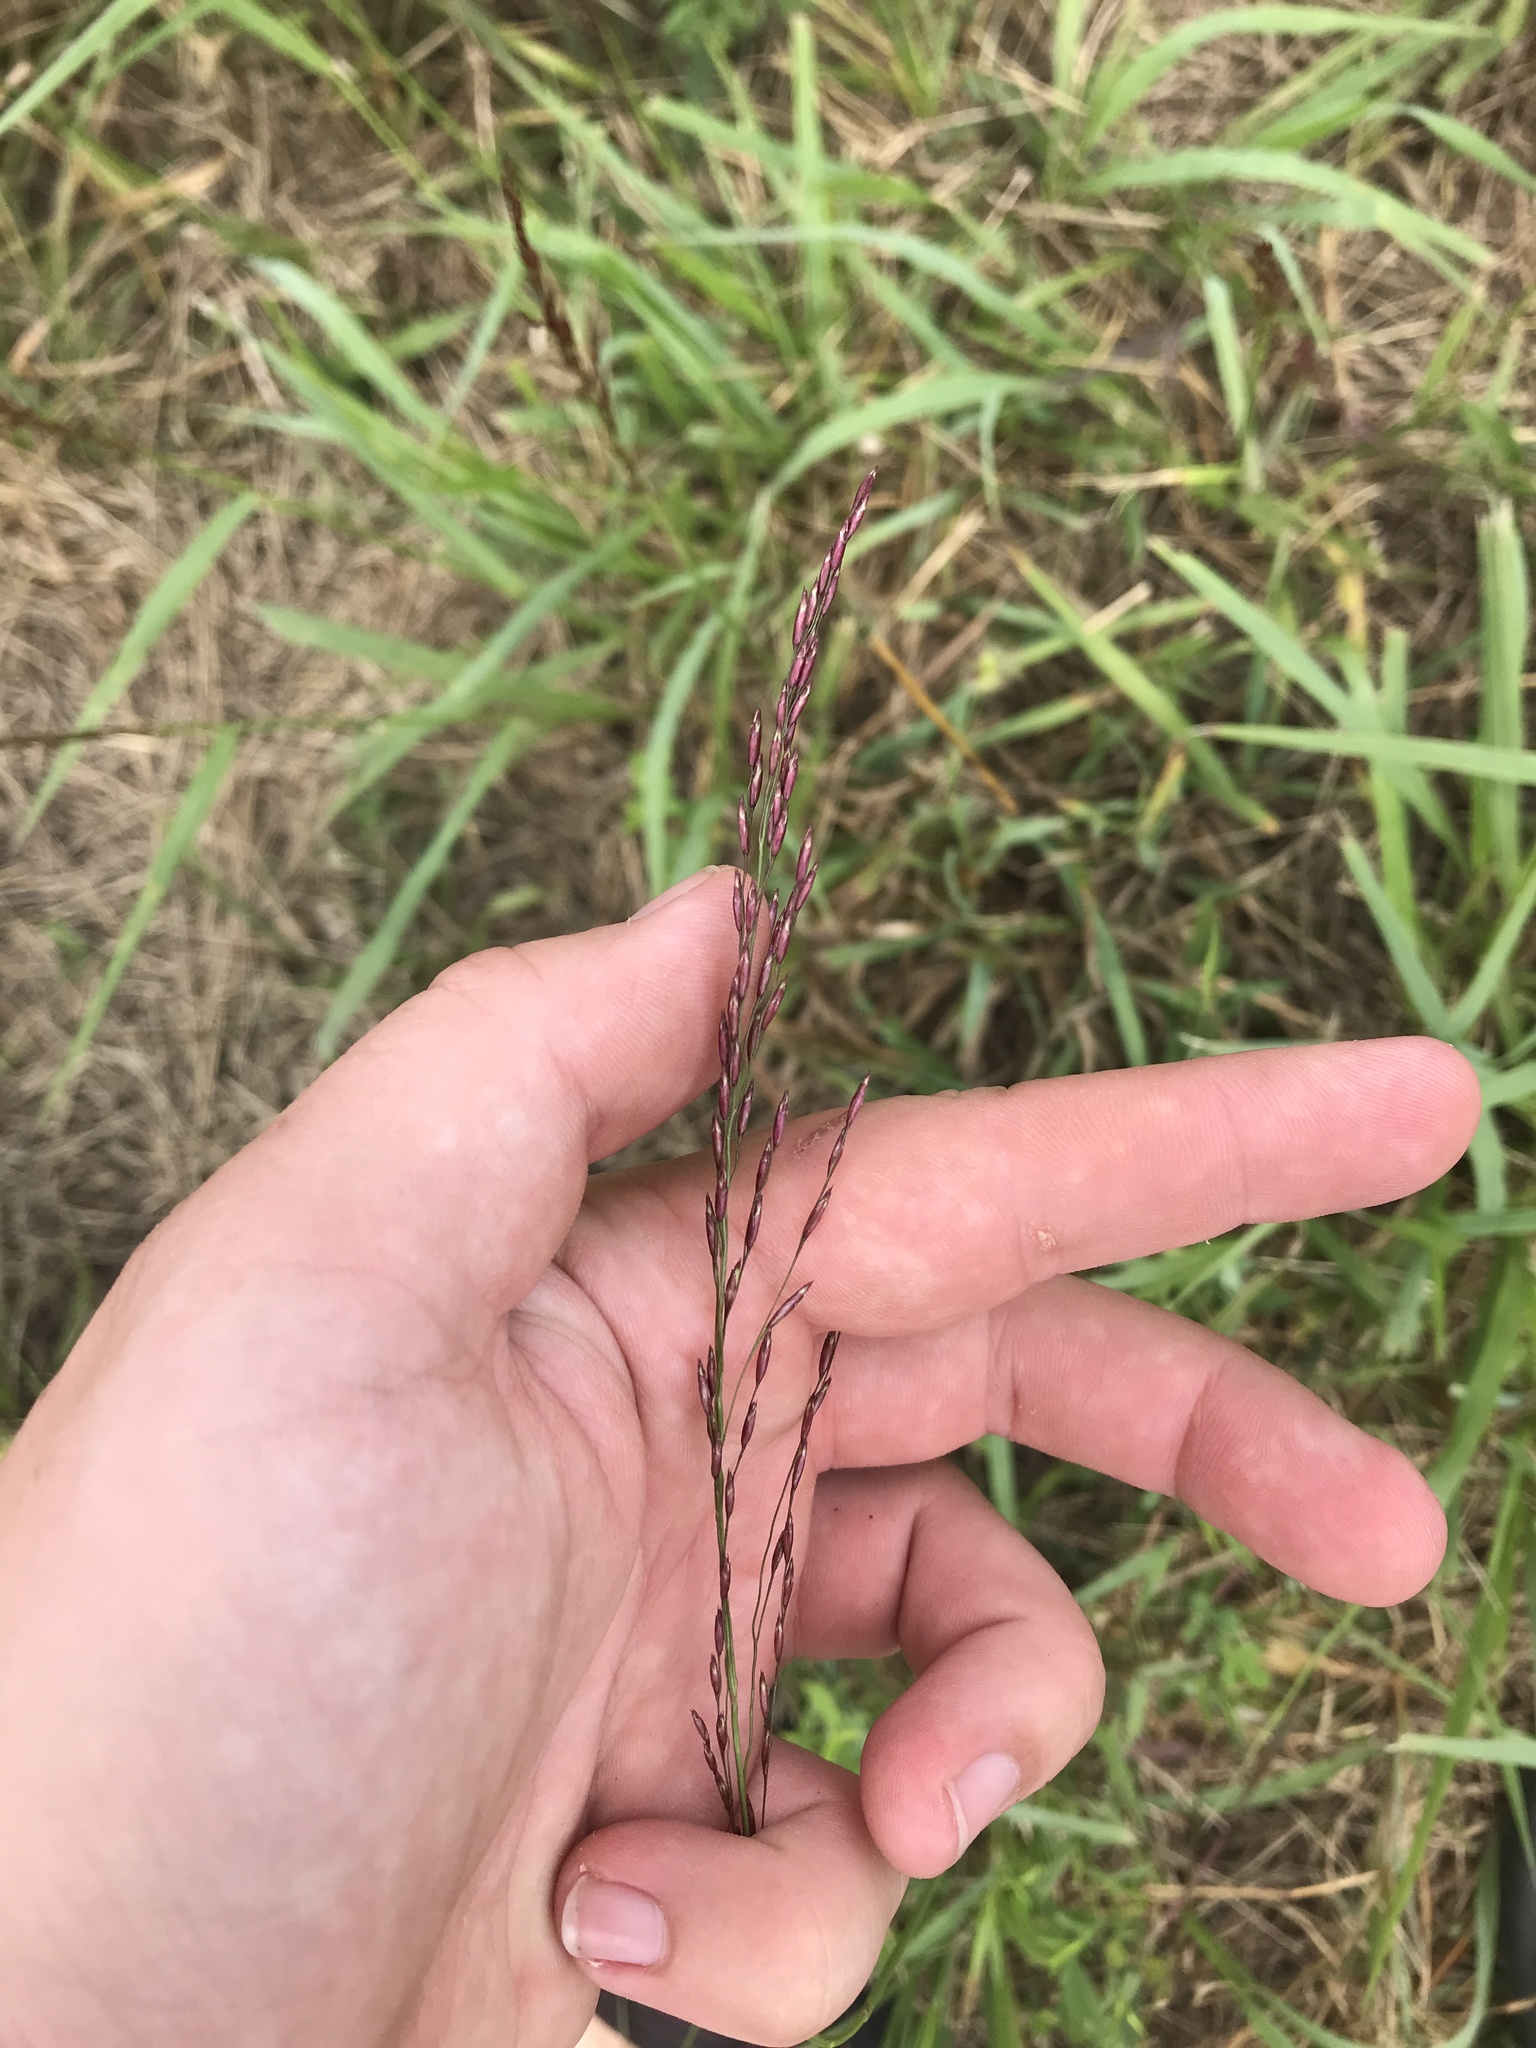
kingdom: Plantae
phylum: Tracheophyta
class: Liliopsida
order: Poales
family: Poaceae
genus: Tridens
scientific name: Tridens flavus
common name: Purpletop
